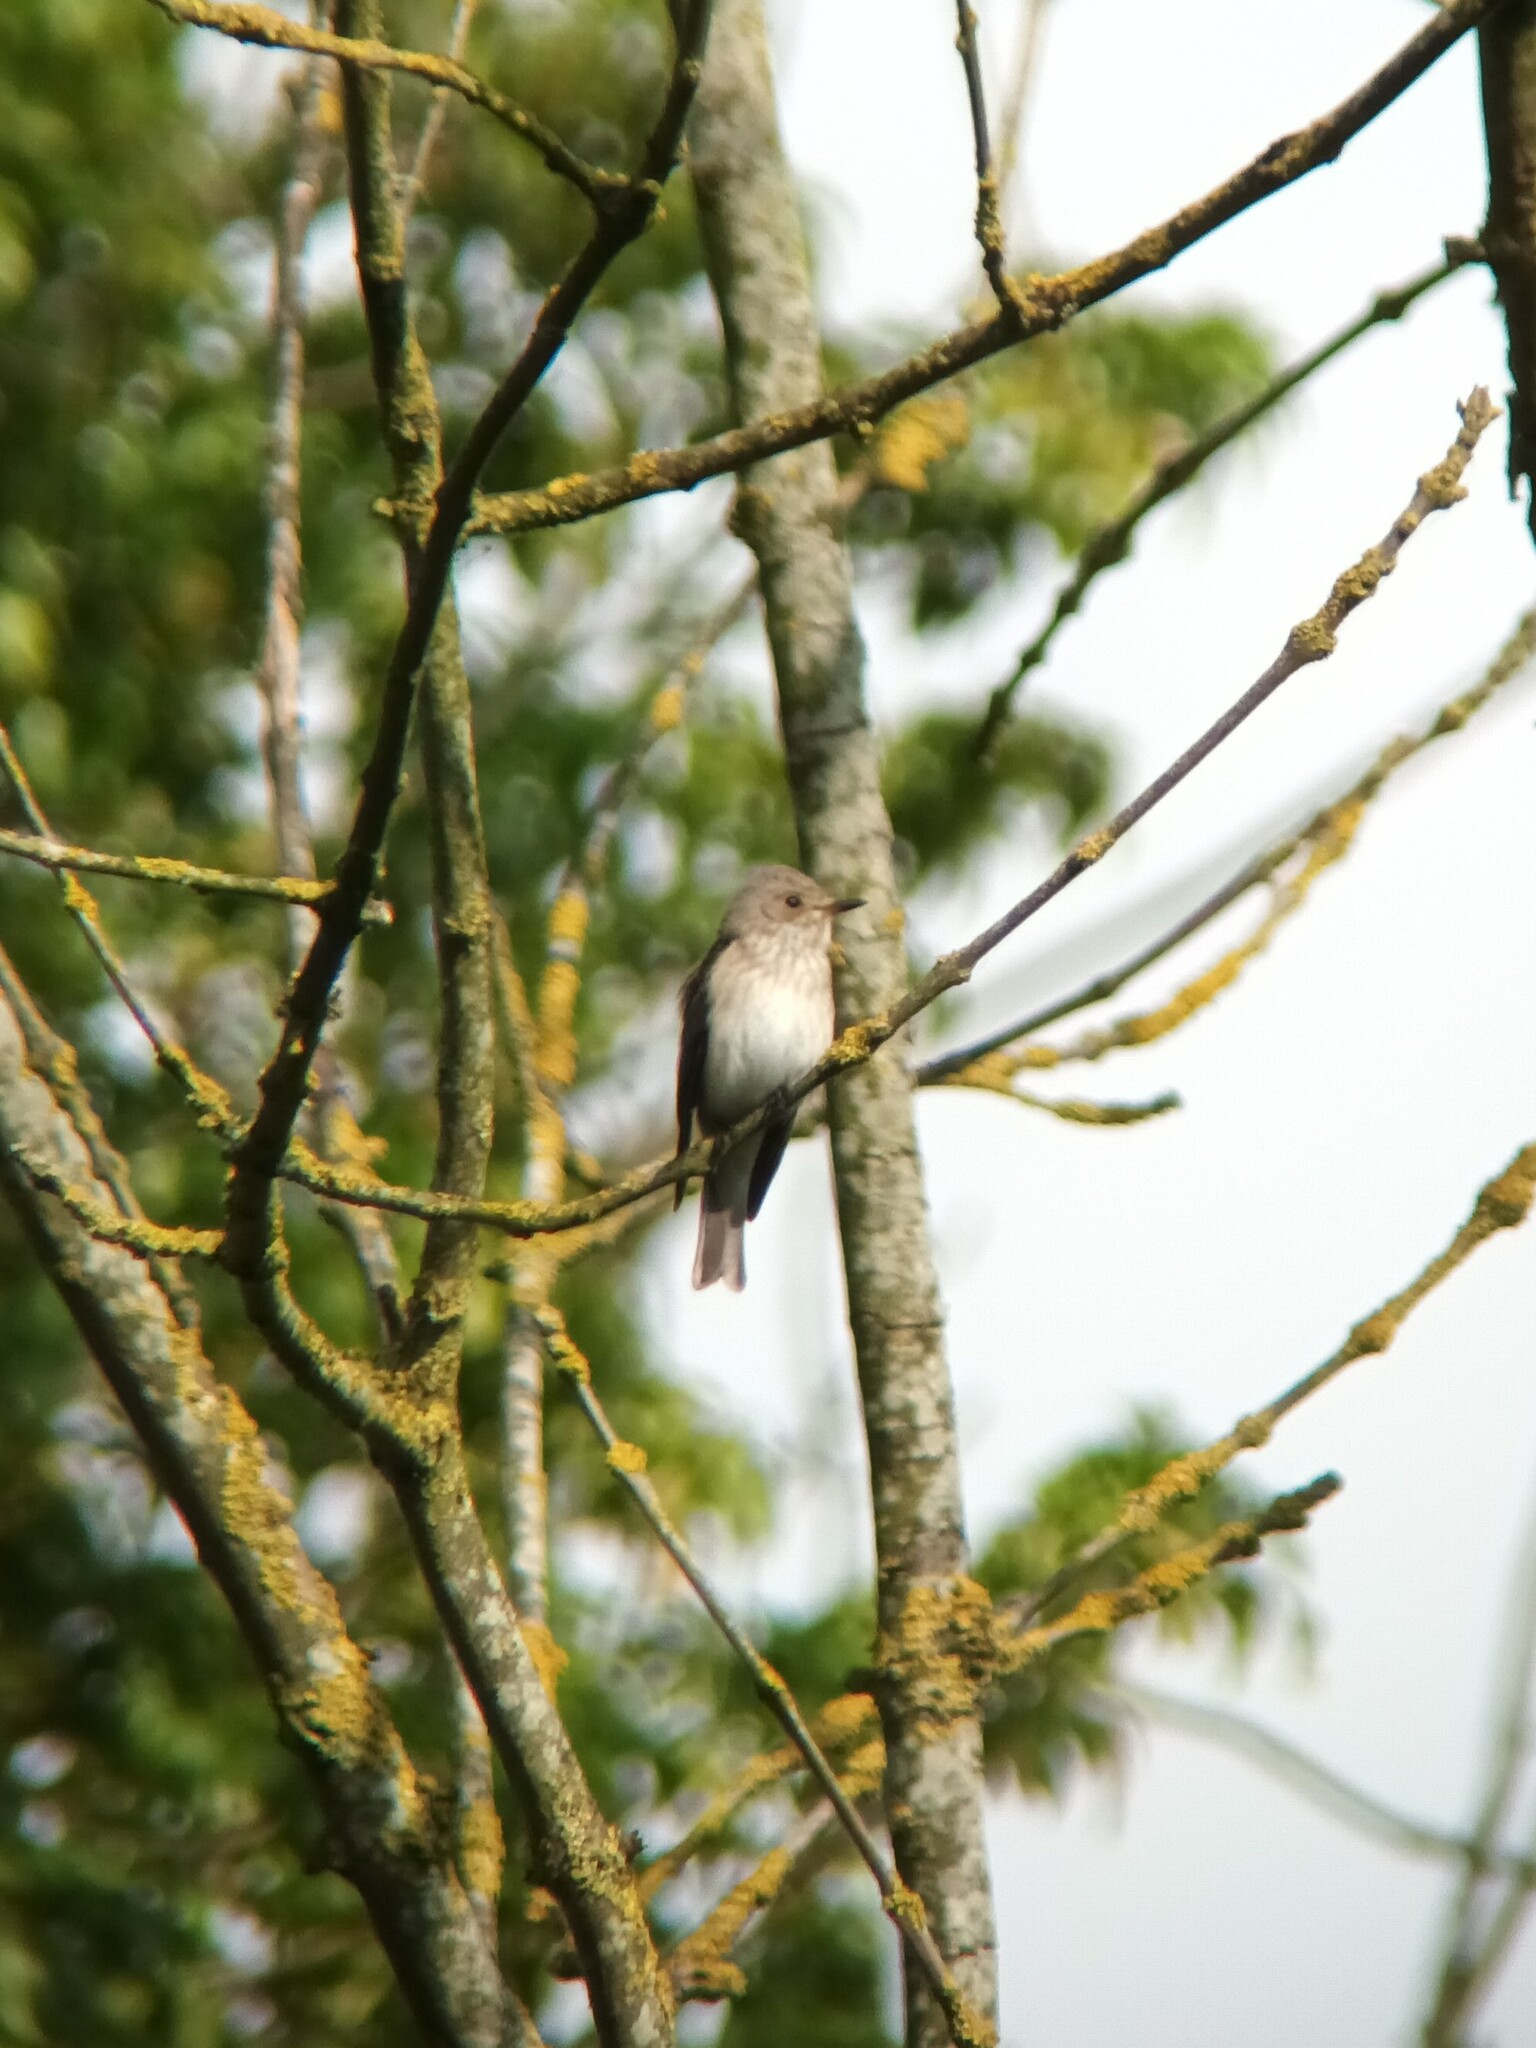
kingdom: Animalia
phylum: Chordata
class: Aves
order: Passeriformes
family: Muscicapidae
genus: Muscicapa
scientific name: Muscicapa striata
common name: Spotted flycatcher
